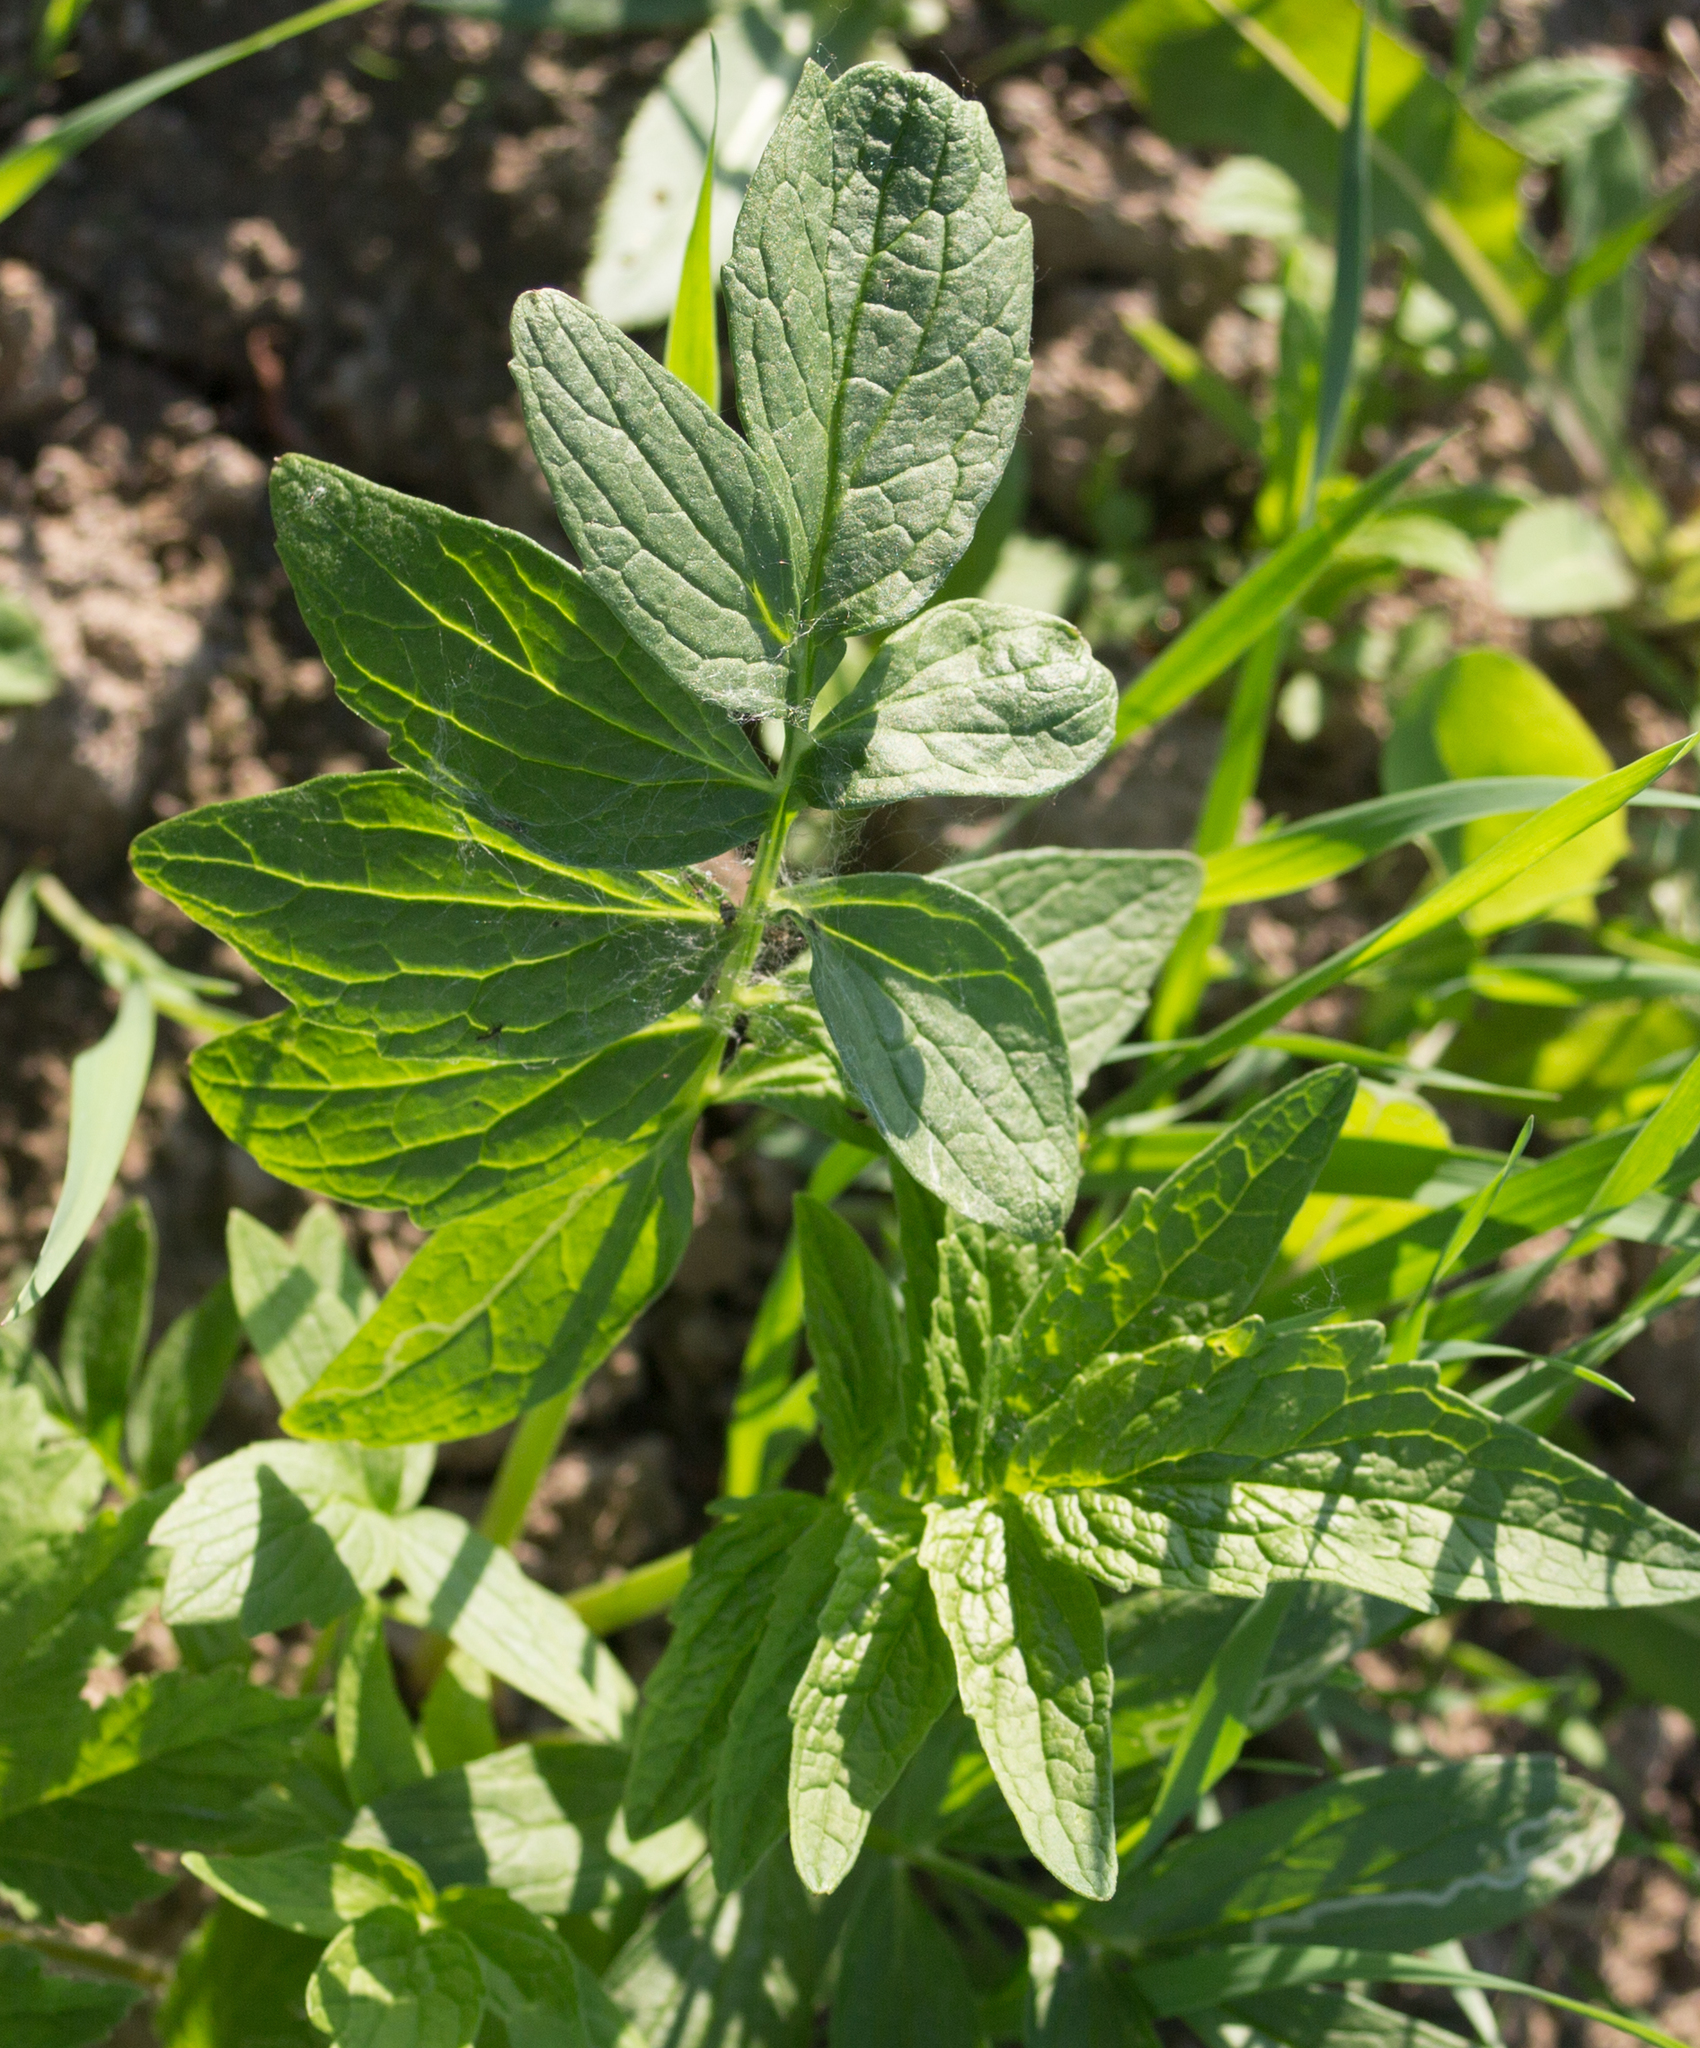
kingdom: Plantae
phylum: Tracheophyta
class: Magnoliopsida
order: Dipsacales
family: Caprifoliaceae
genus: Valeriana
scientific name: Valeriana officinalis
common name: Common valerian
